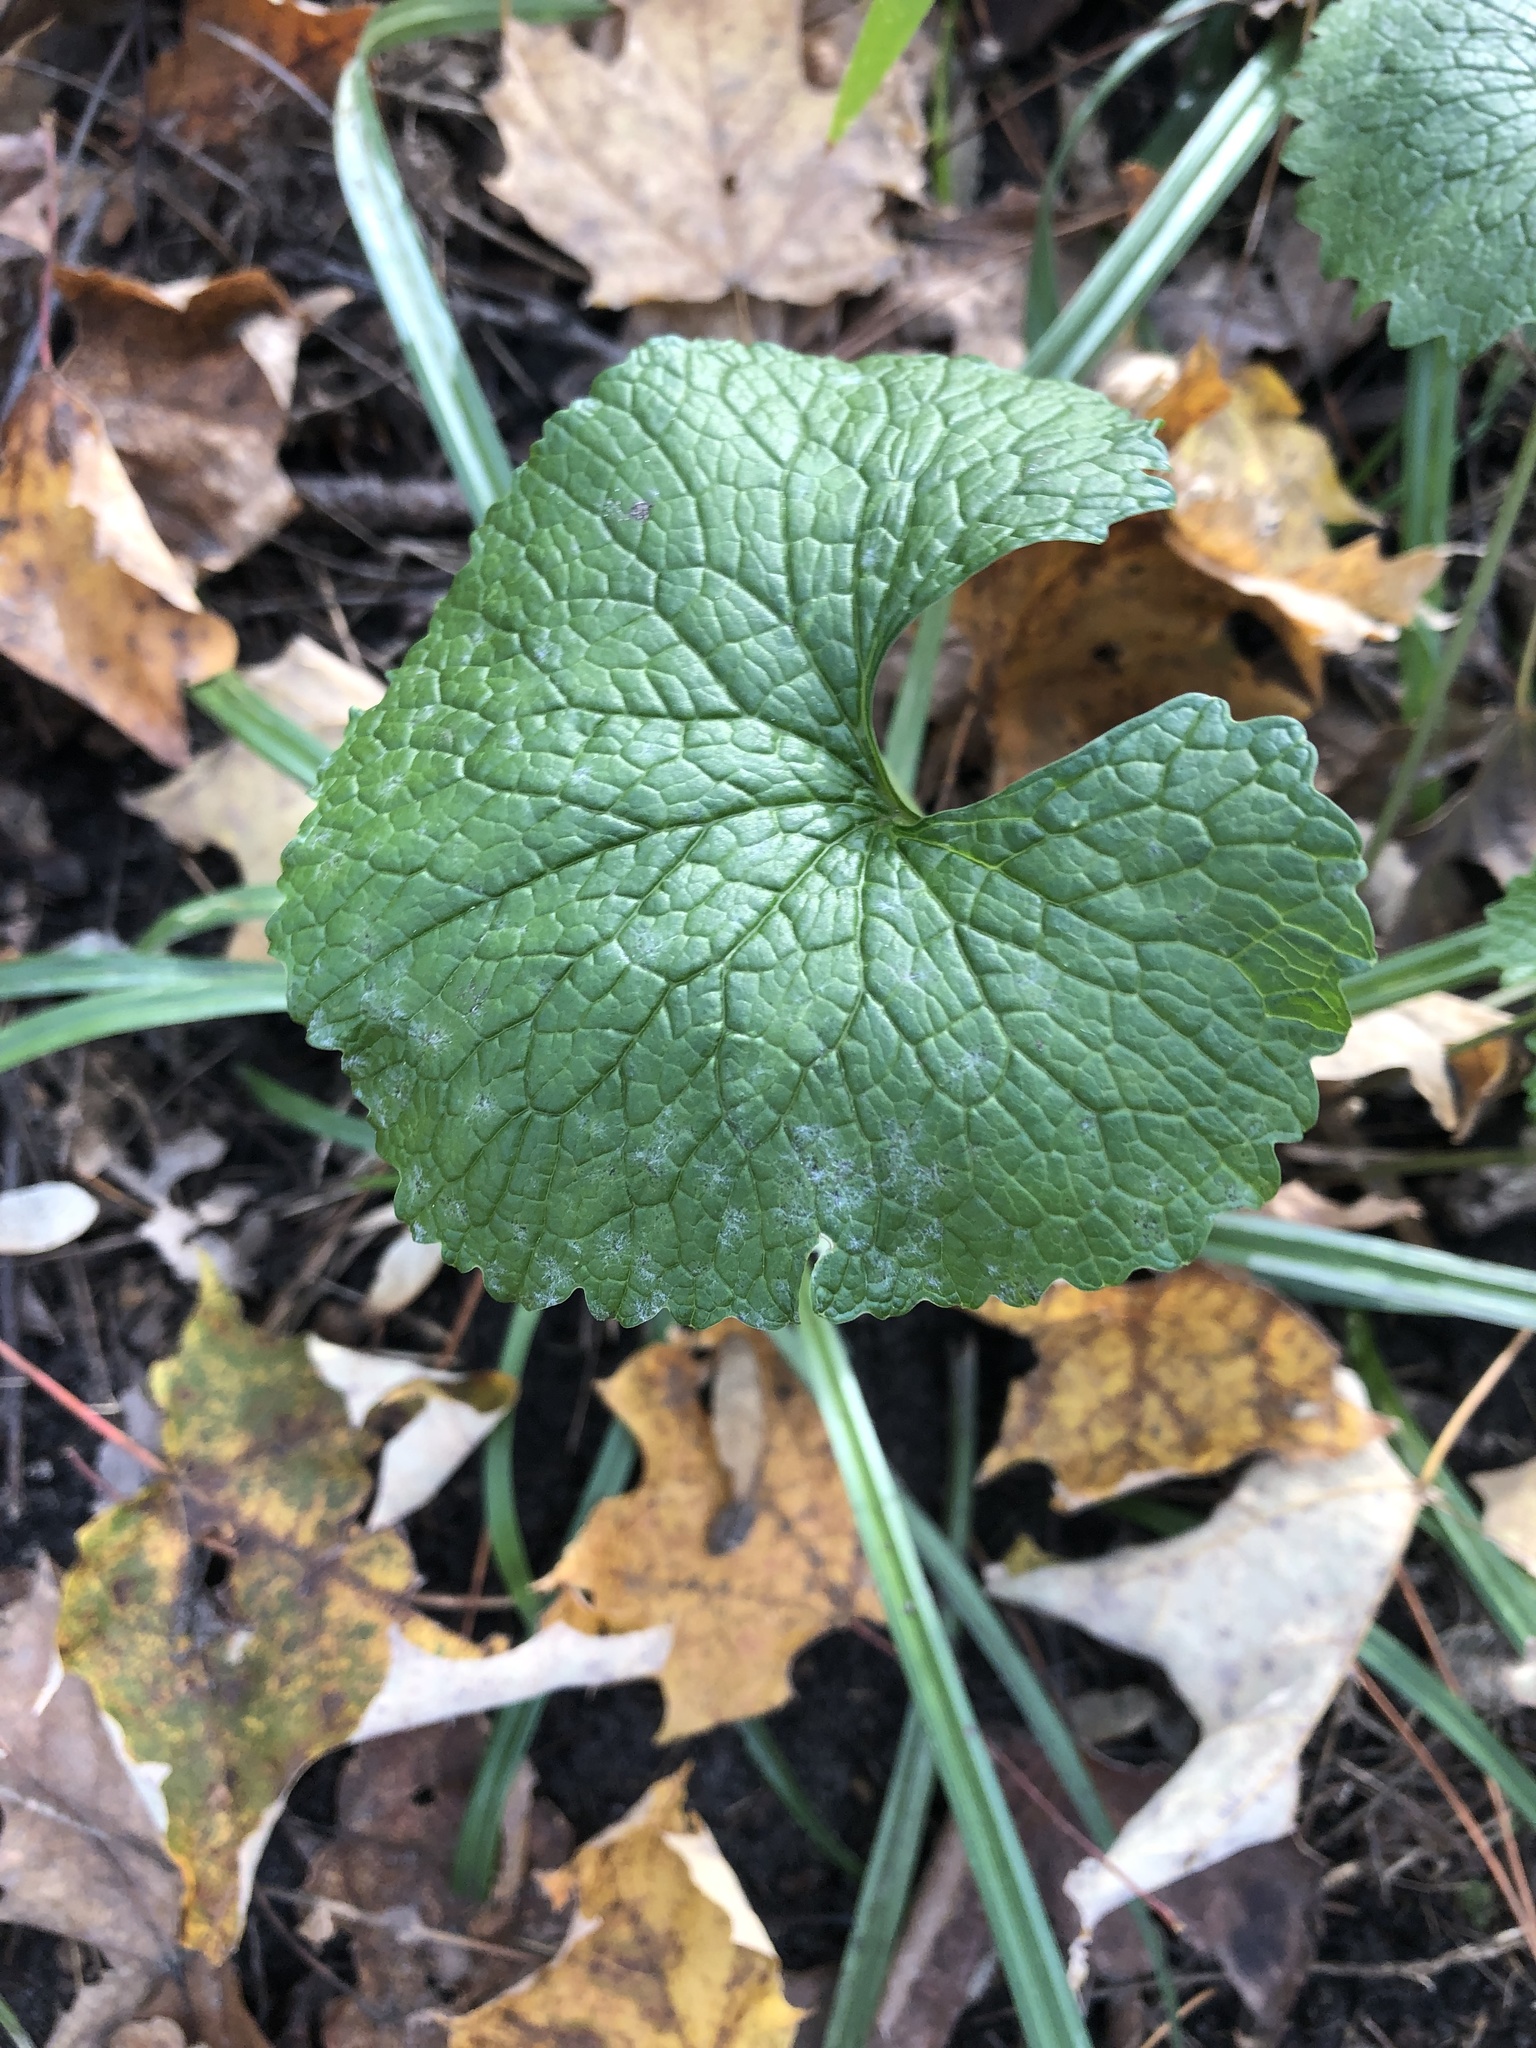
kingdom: Plantae
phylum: Tracheophyta
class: Magnoliopsida
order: Brassicales
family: Brassicaceae
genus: Alliaria
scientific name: Alliaria petiolata
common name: Garlic mustard
